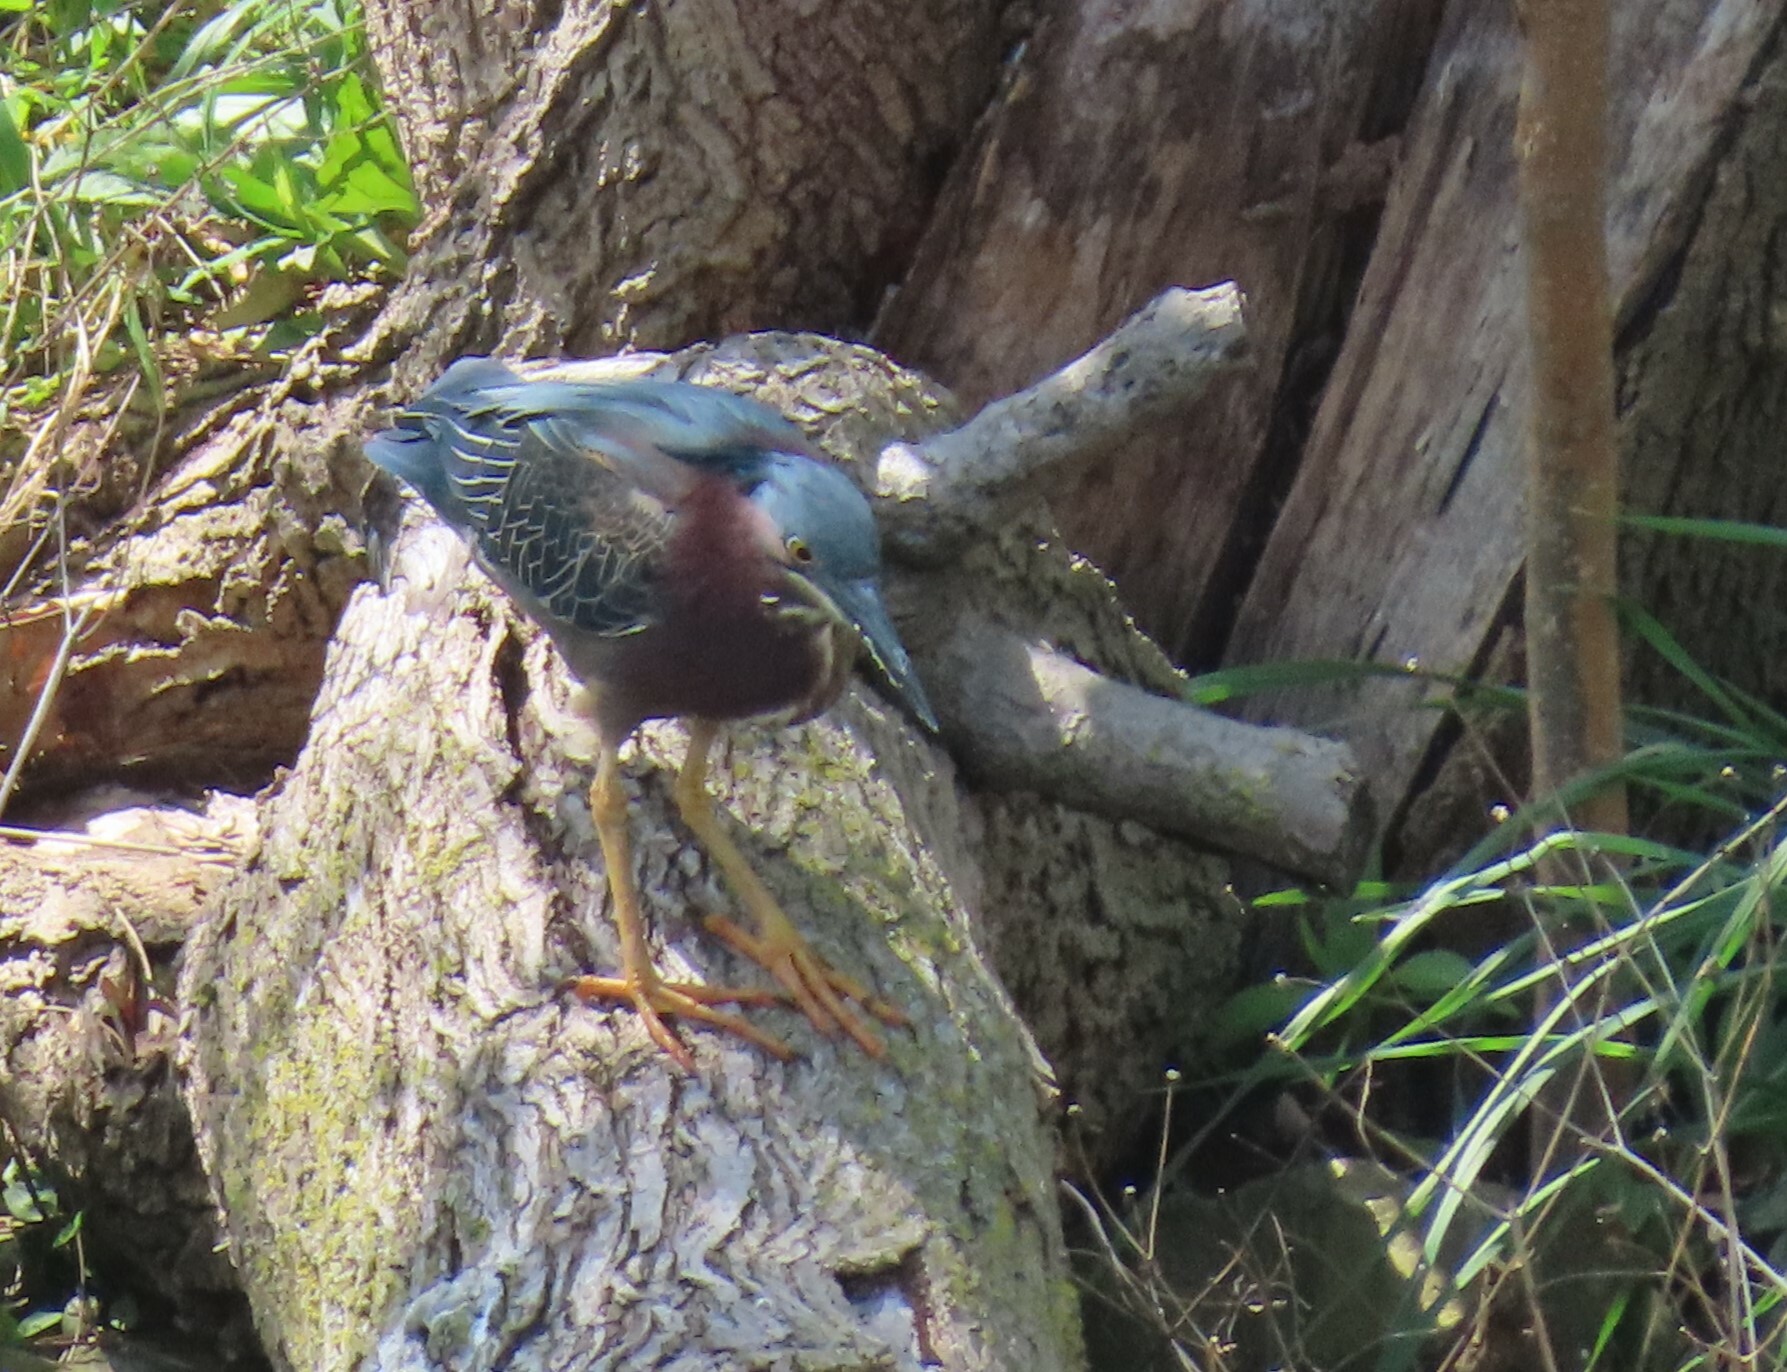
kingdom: Animalia
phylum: Chordata
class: Aves
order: Pelecaniformes
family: Ardeidae
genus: Butorides
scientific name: Butorides virescens
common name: Green heron
